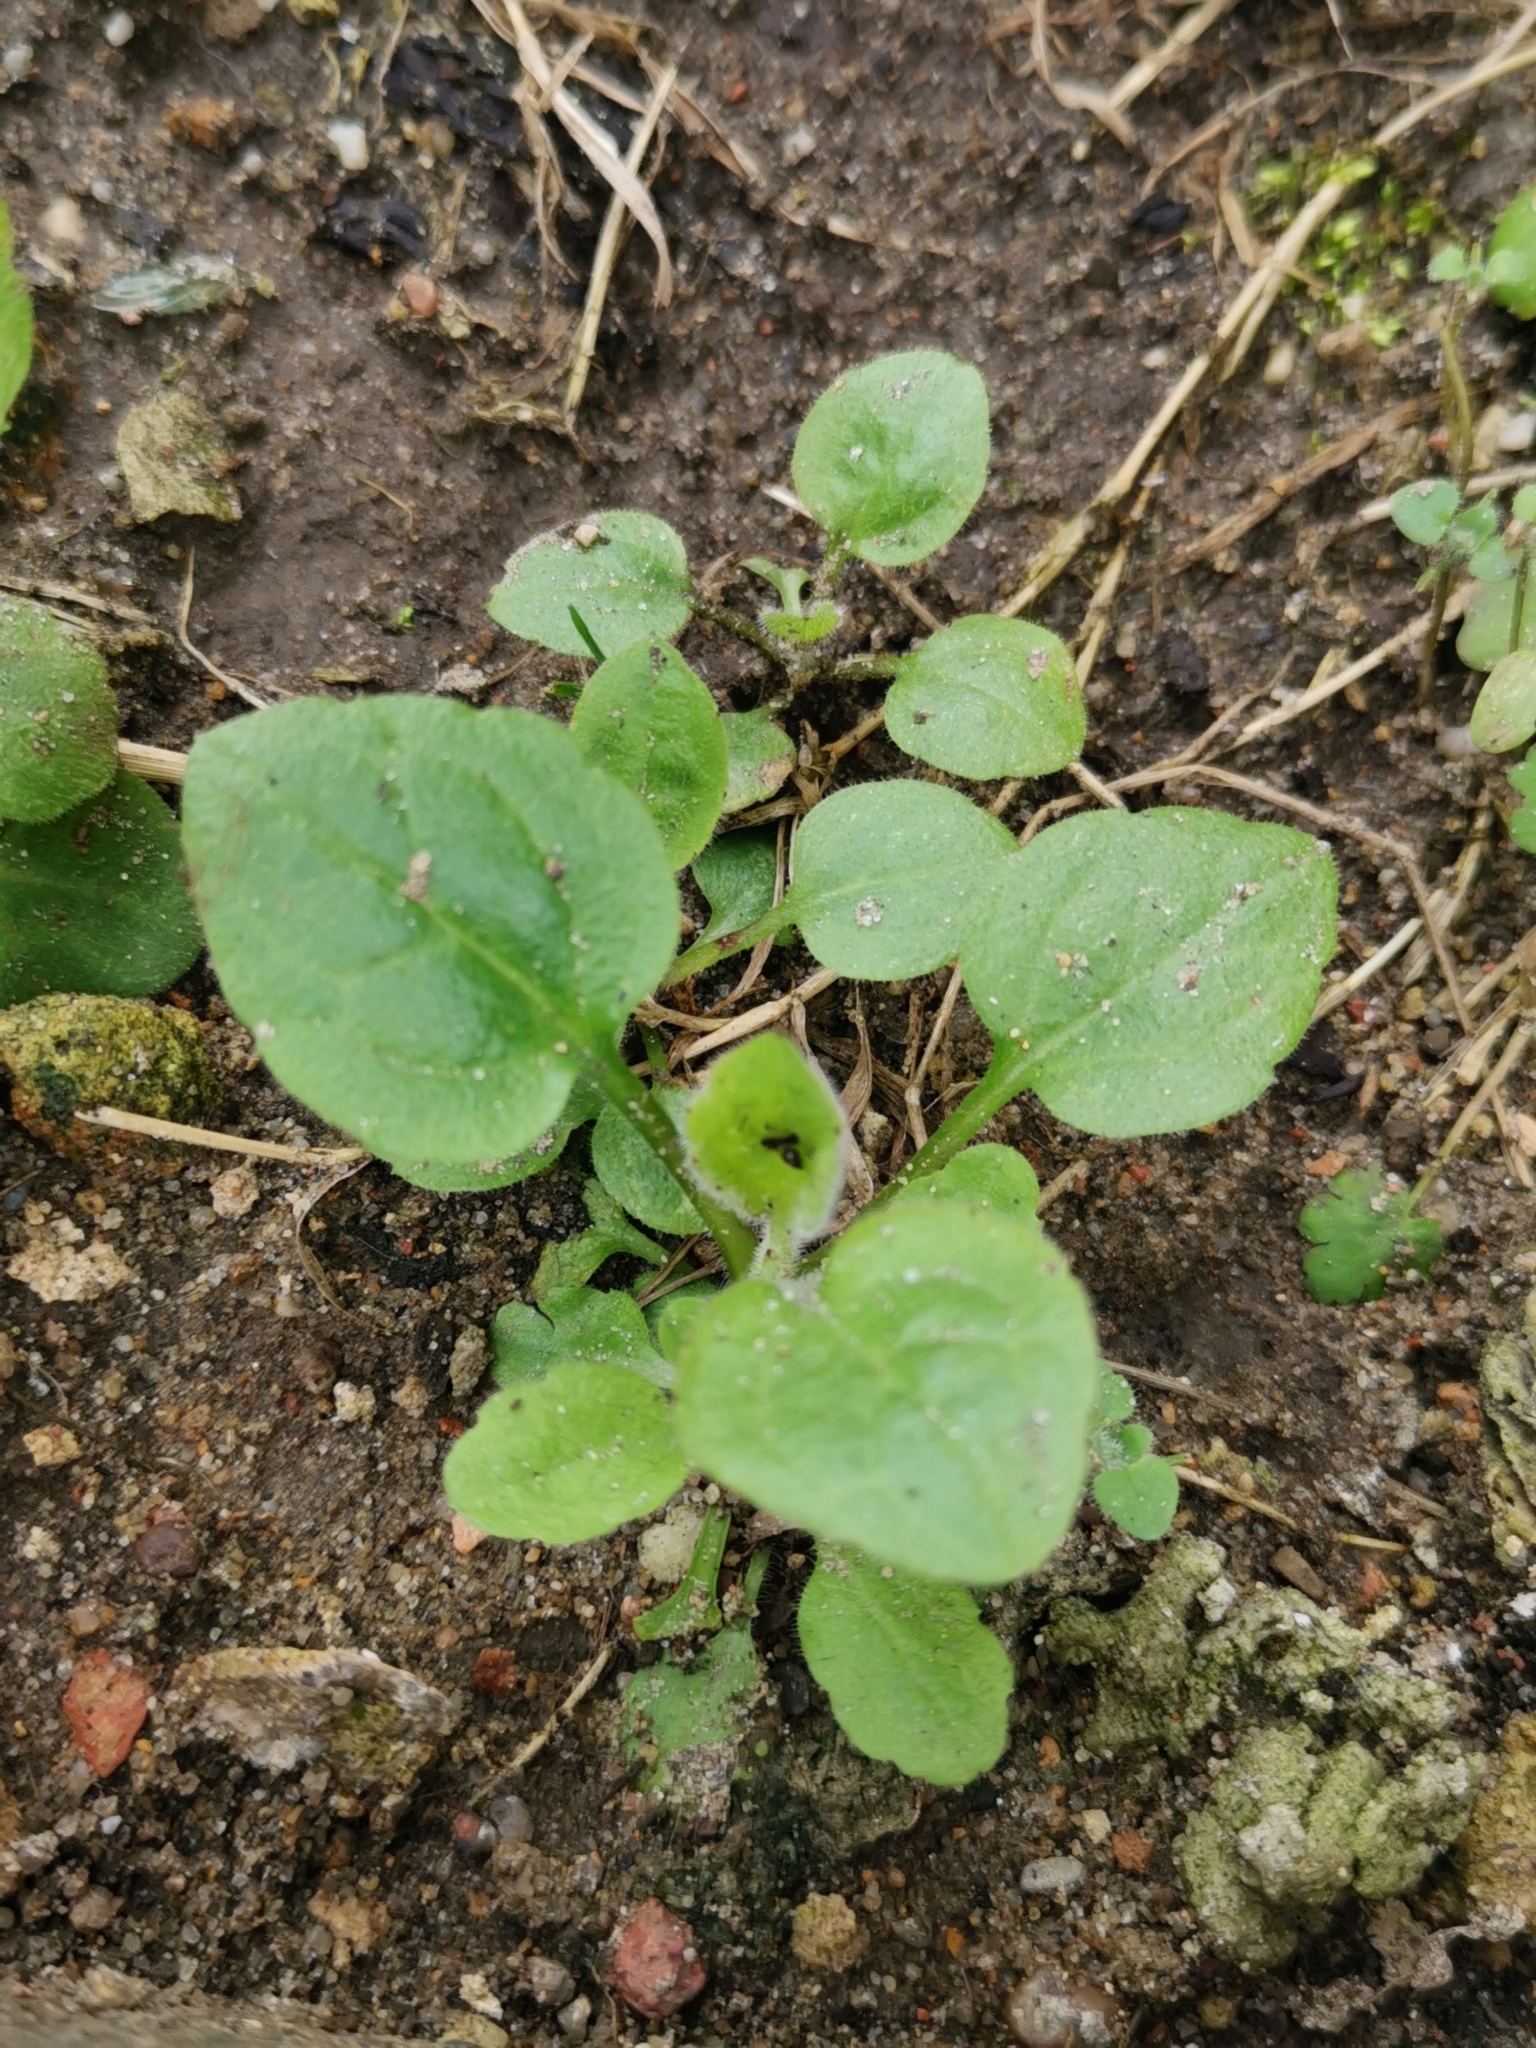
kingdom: Plantae
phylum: Tracheophyta
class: Magnoliopsida
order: Asterales
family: Asteraceae
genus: Erigeron
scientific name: Erigeron annuus
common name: Tall fleabane
